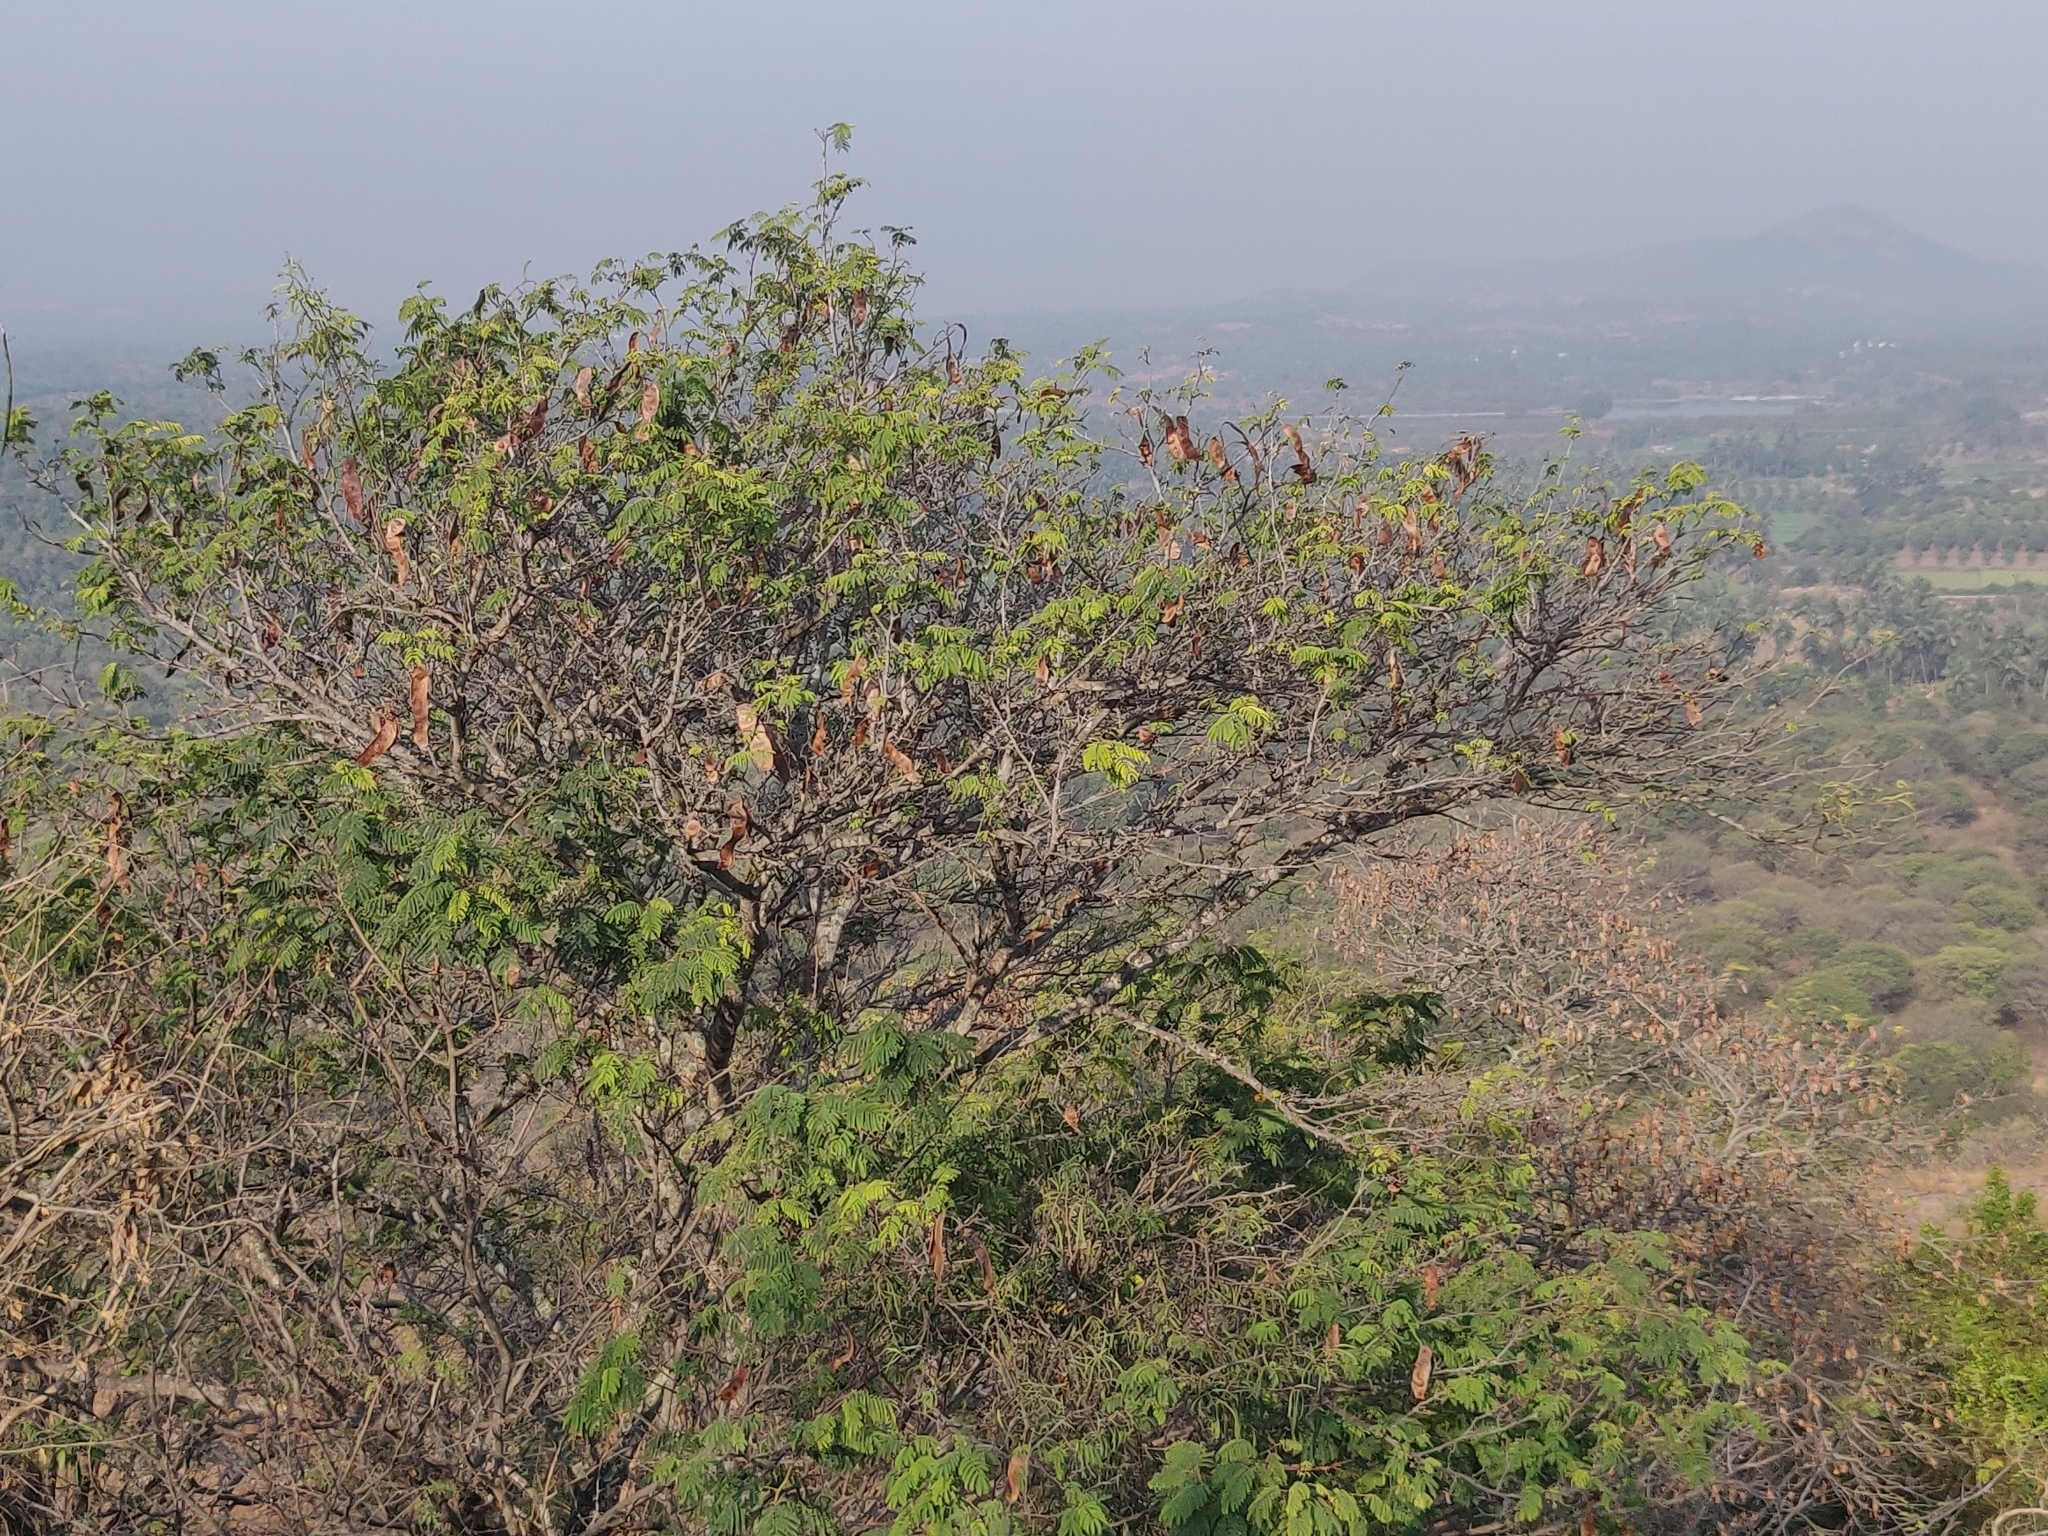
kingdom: Plantae
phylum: Tracheophyta
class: Magnoliopsida
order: Fabales
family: Fabaceae
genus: Albizia
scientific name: Albizia amara
